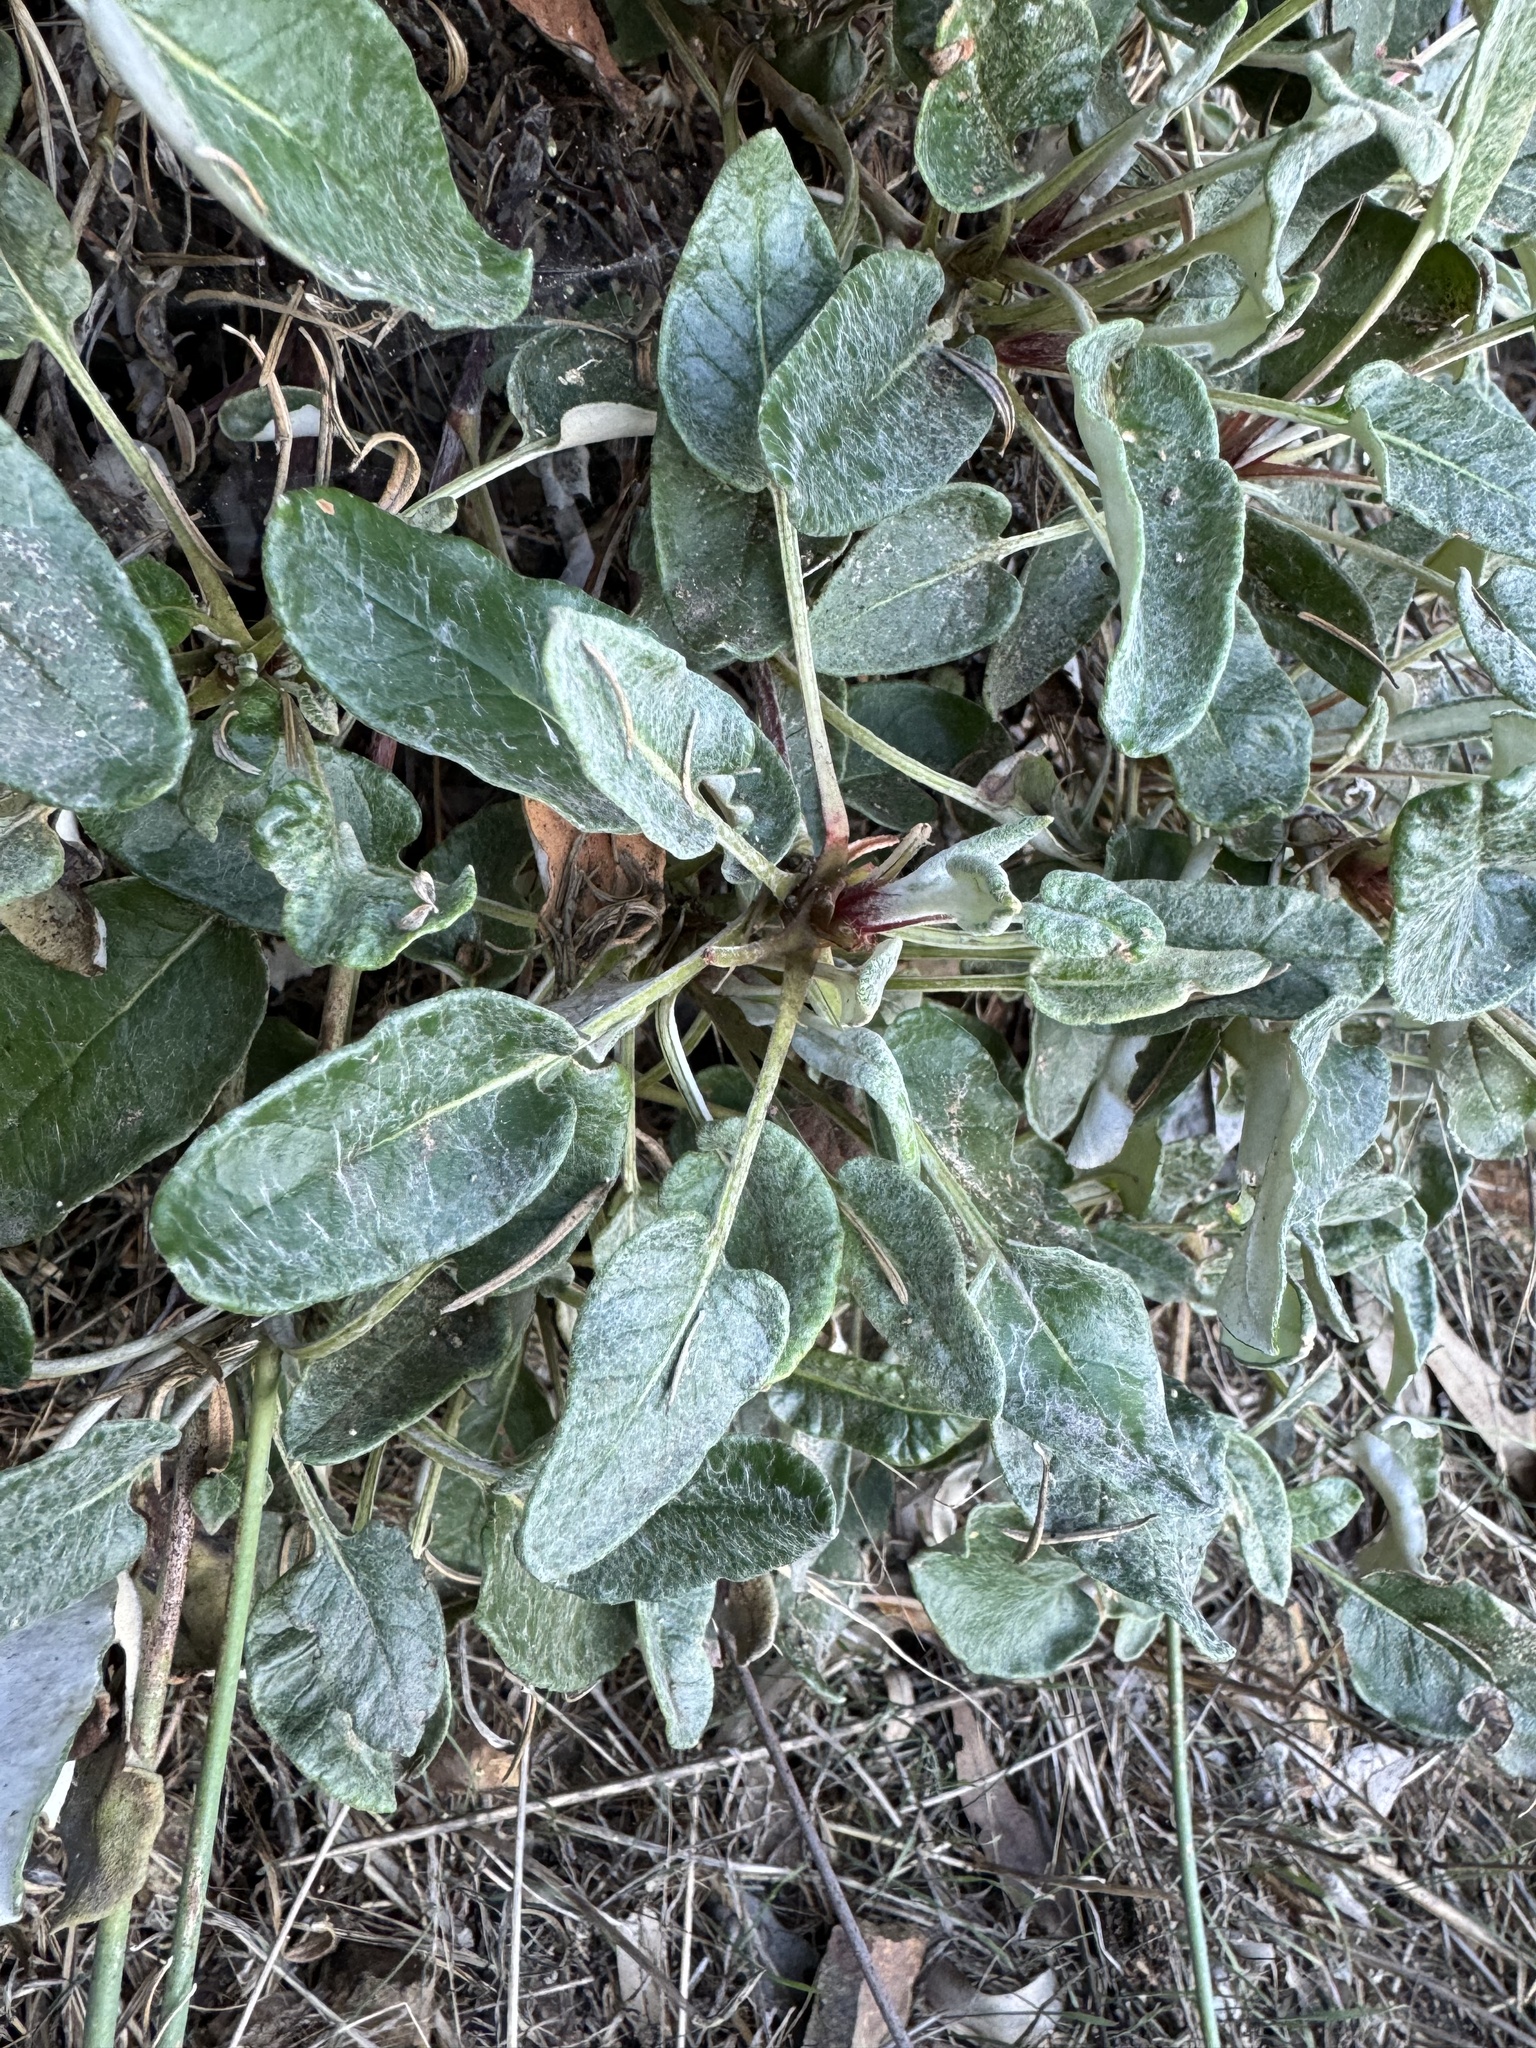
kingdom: Plantae
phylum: Tracheophyta
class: Magnoliopsida
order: Caryophyllales
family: Polygonaceae
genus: Eriogonum
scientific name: Eriogonum grande
